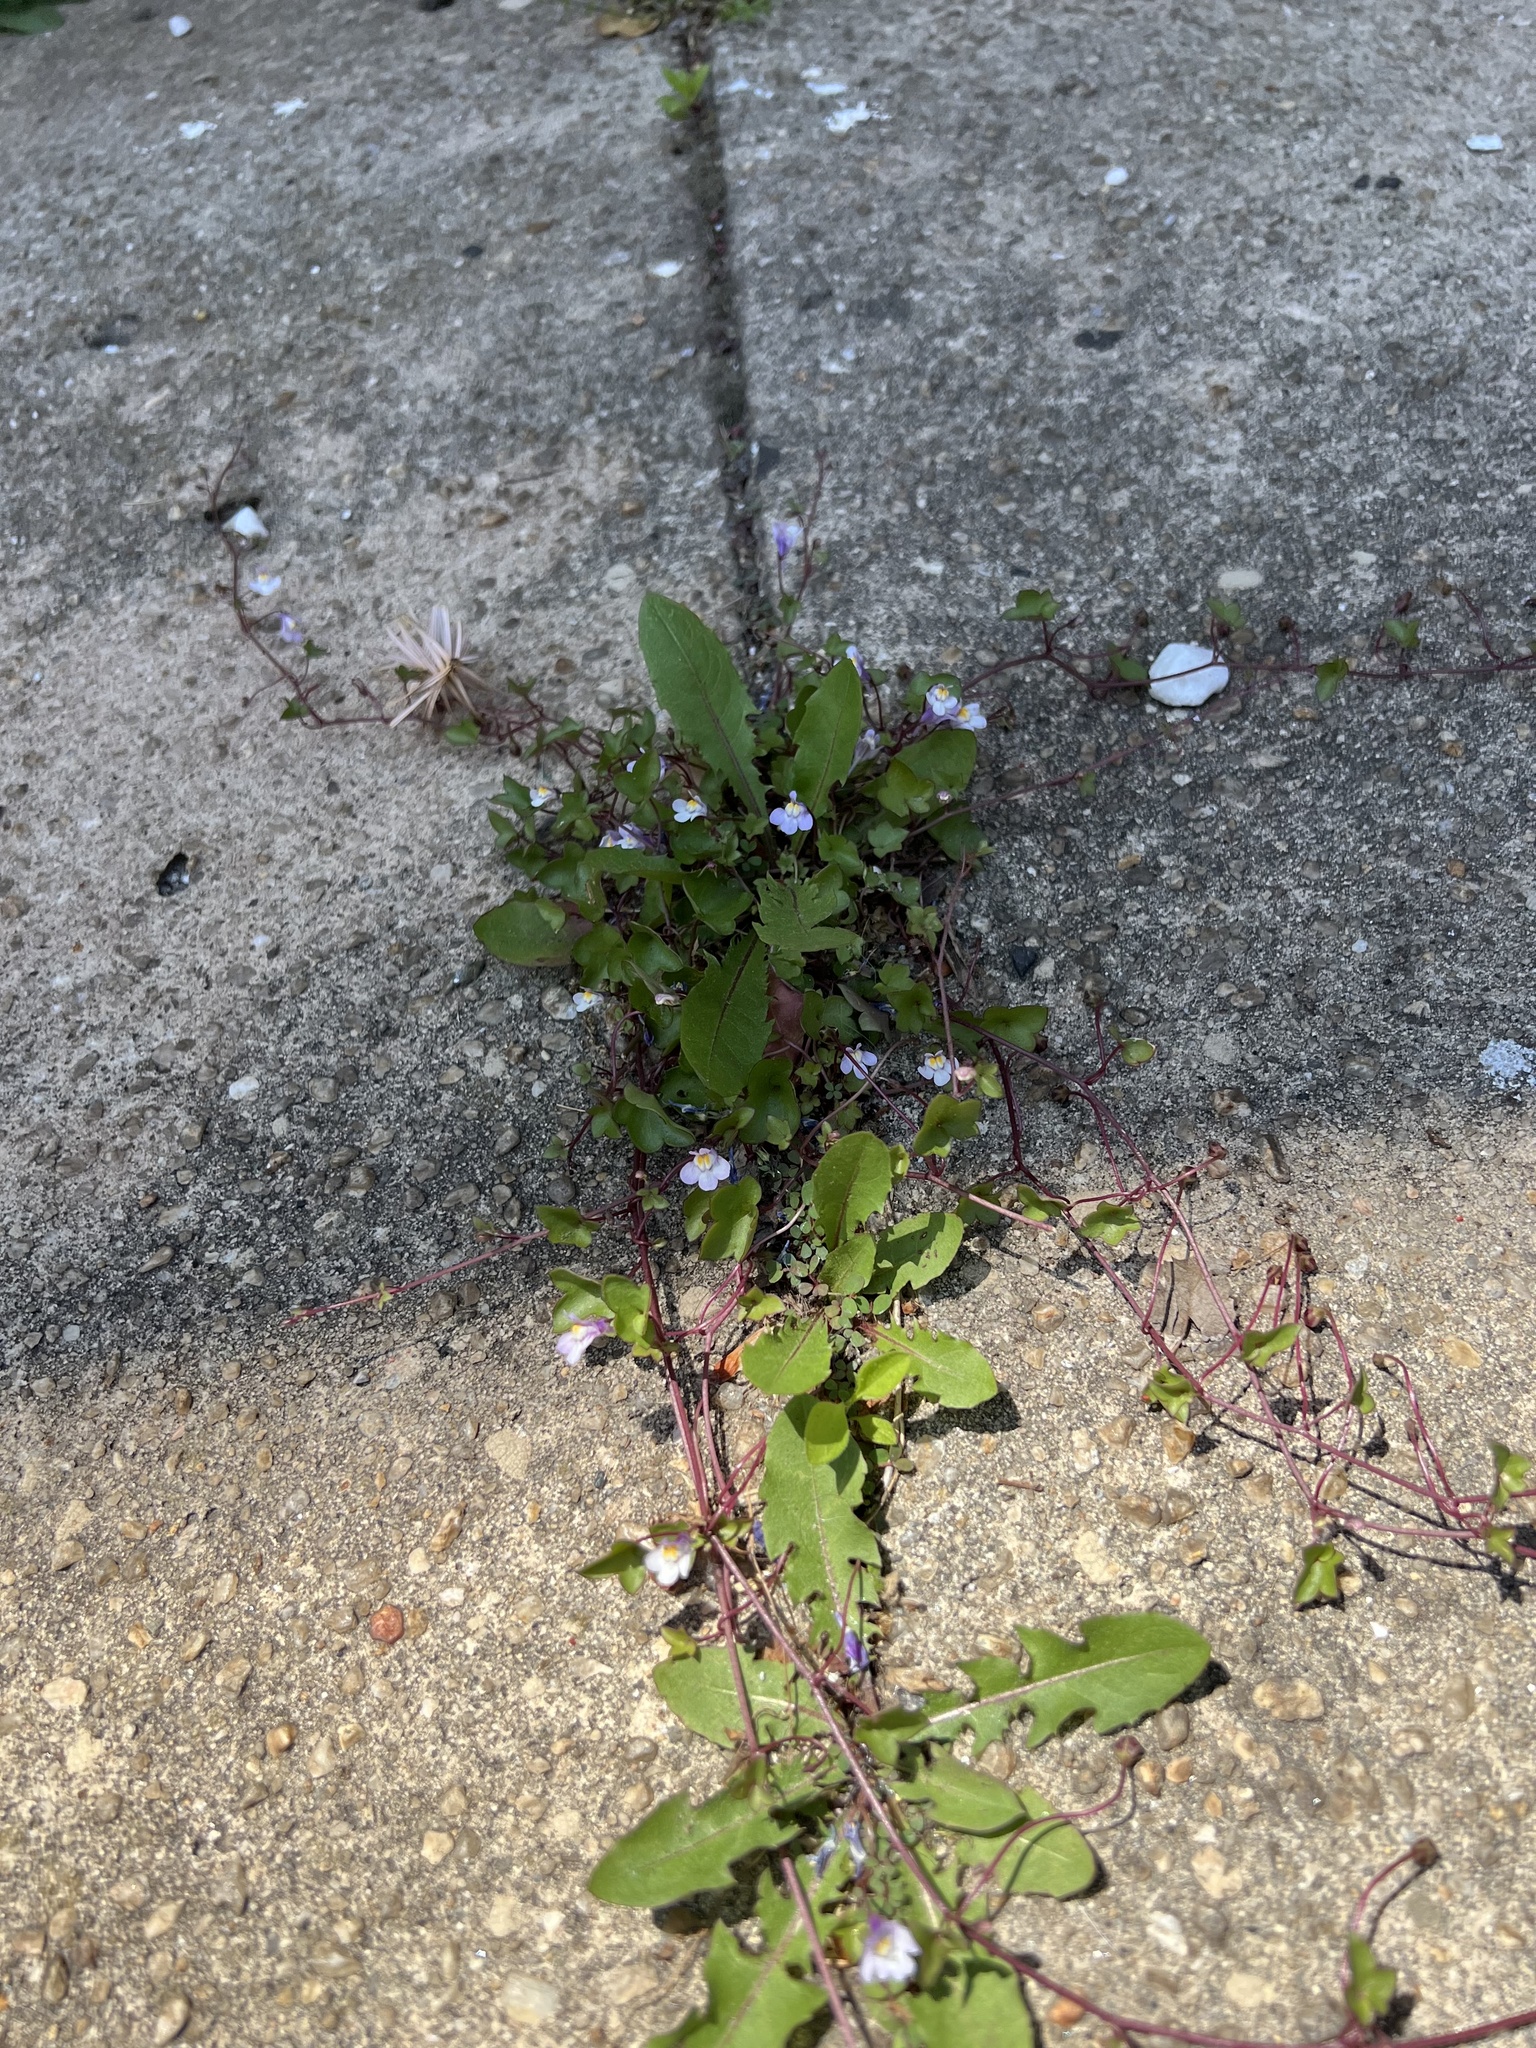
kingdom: Plantae
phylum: Tracheophyta
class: Magnoliopsida
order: Lamiales
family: Plantaginaceae
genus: Cymbalaria
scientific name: Cymbalaria muralis
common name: Ivy-leaved toadflax
